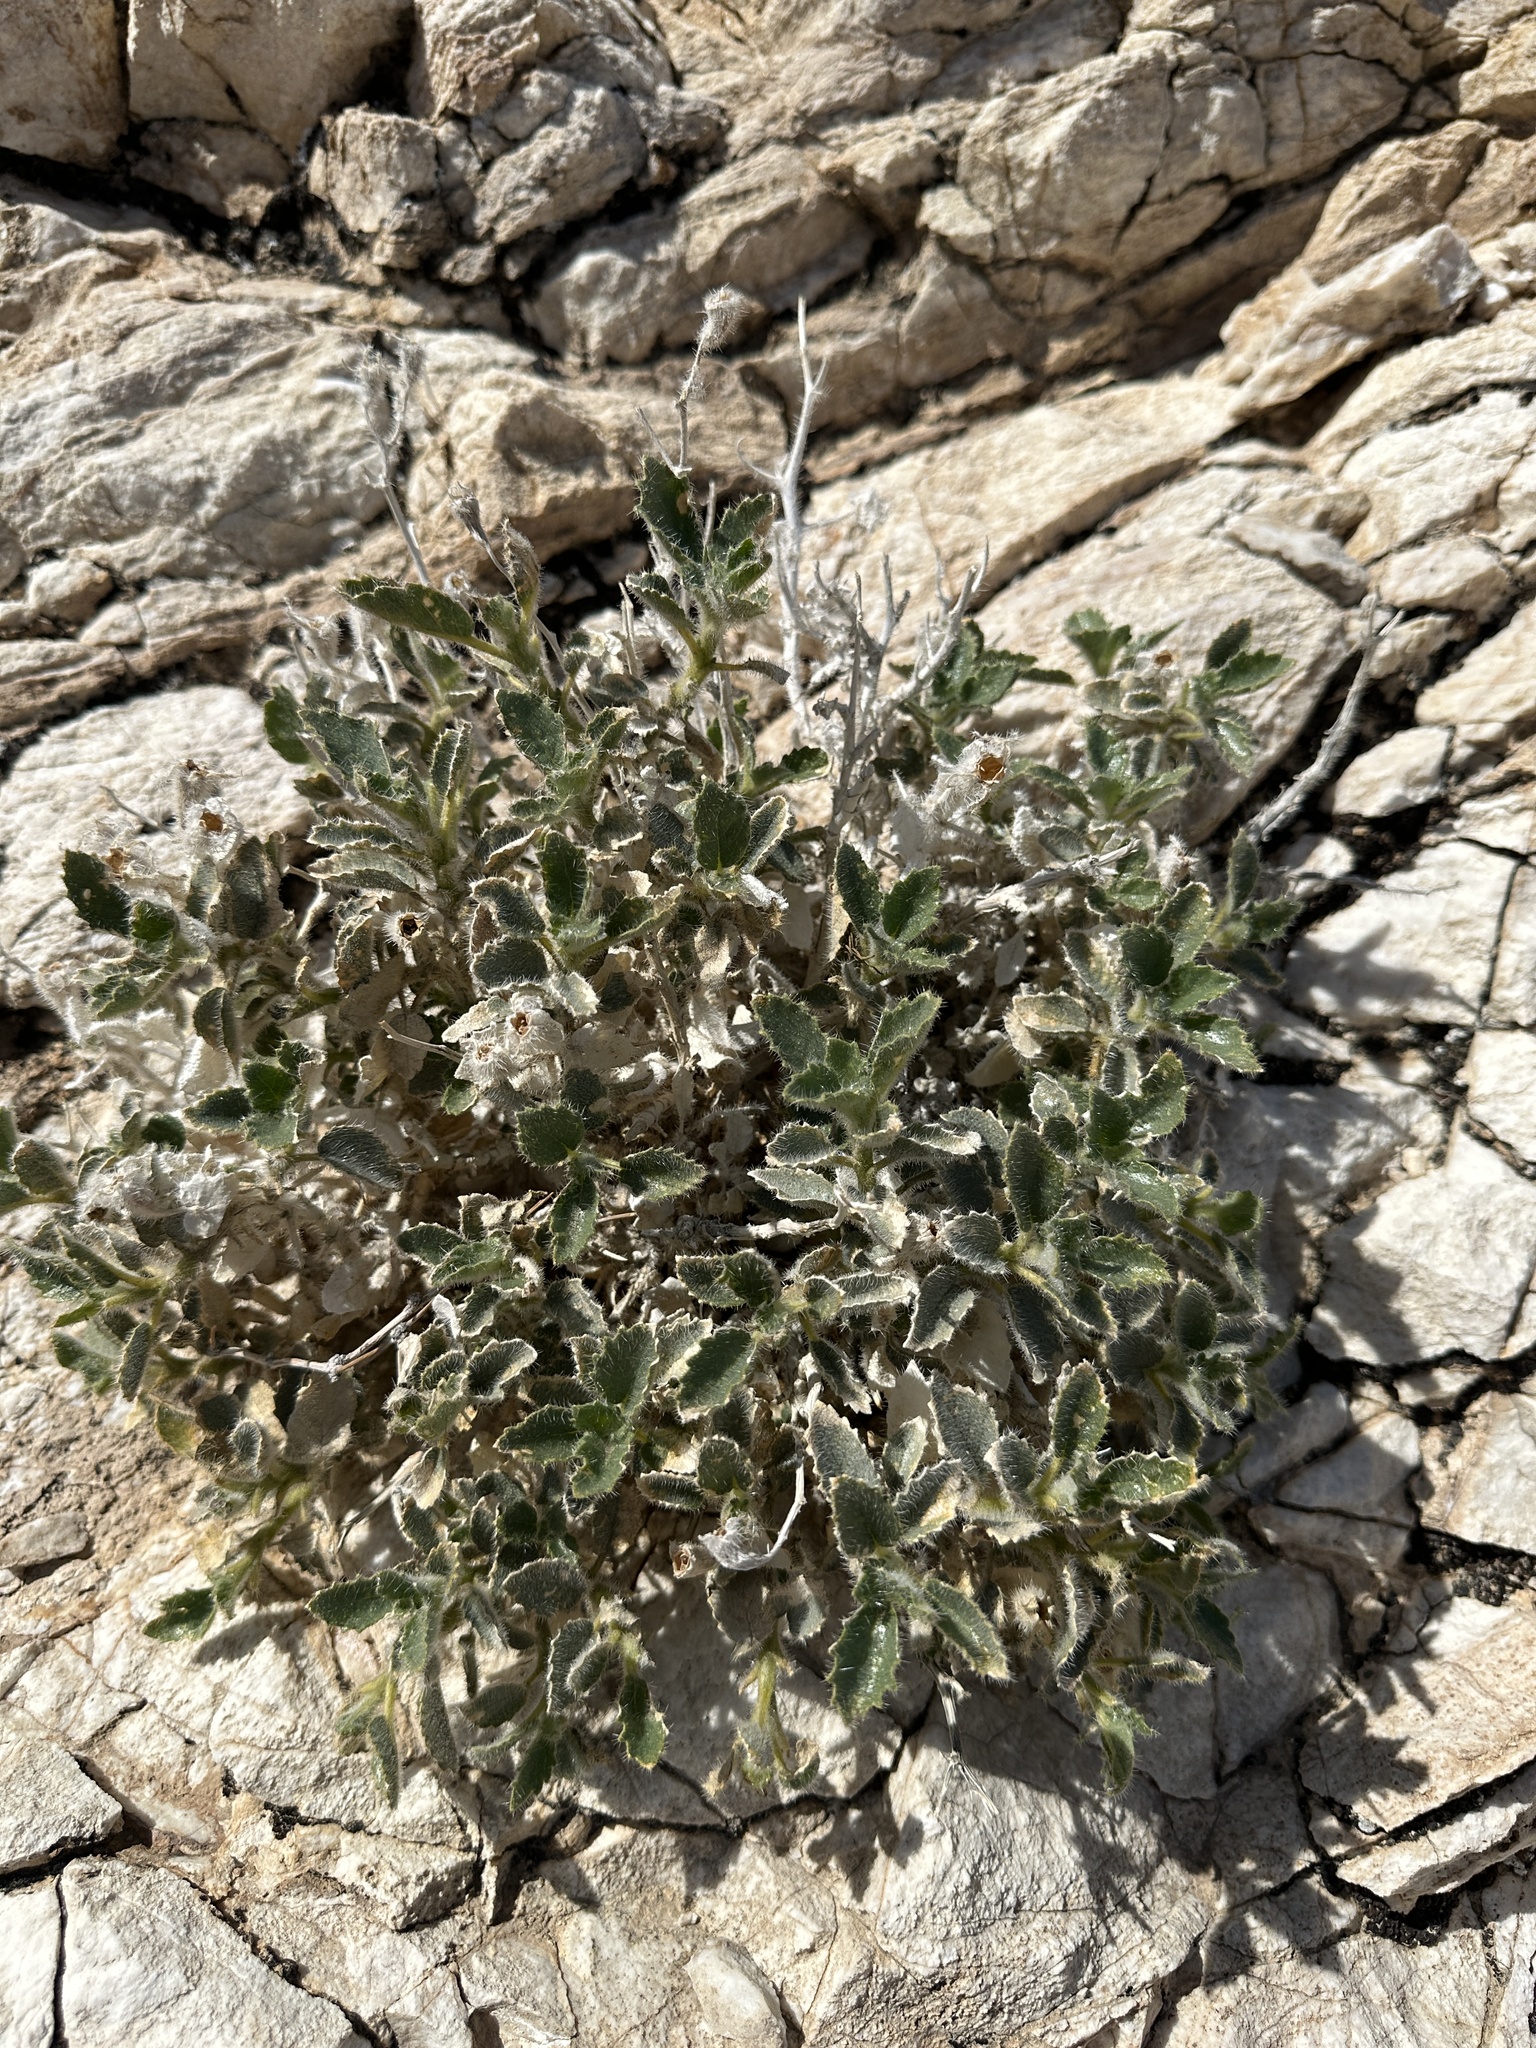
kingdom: Plantae
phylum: Tracheophyta
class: Magnoliopsida
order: Cornales
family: Loasaceae
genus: Eucnide
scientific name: Eucnide urens
